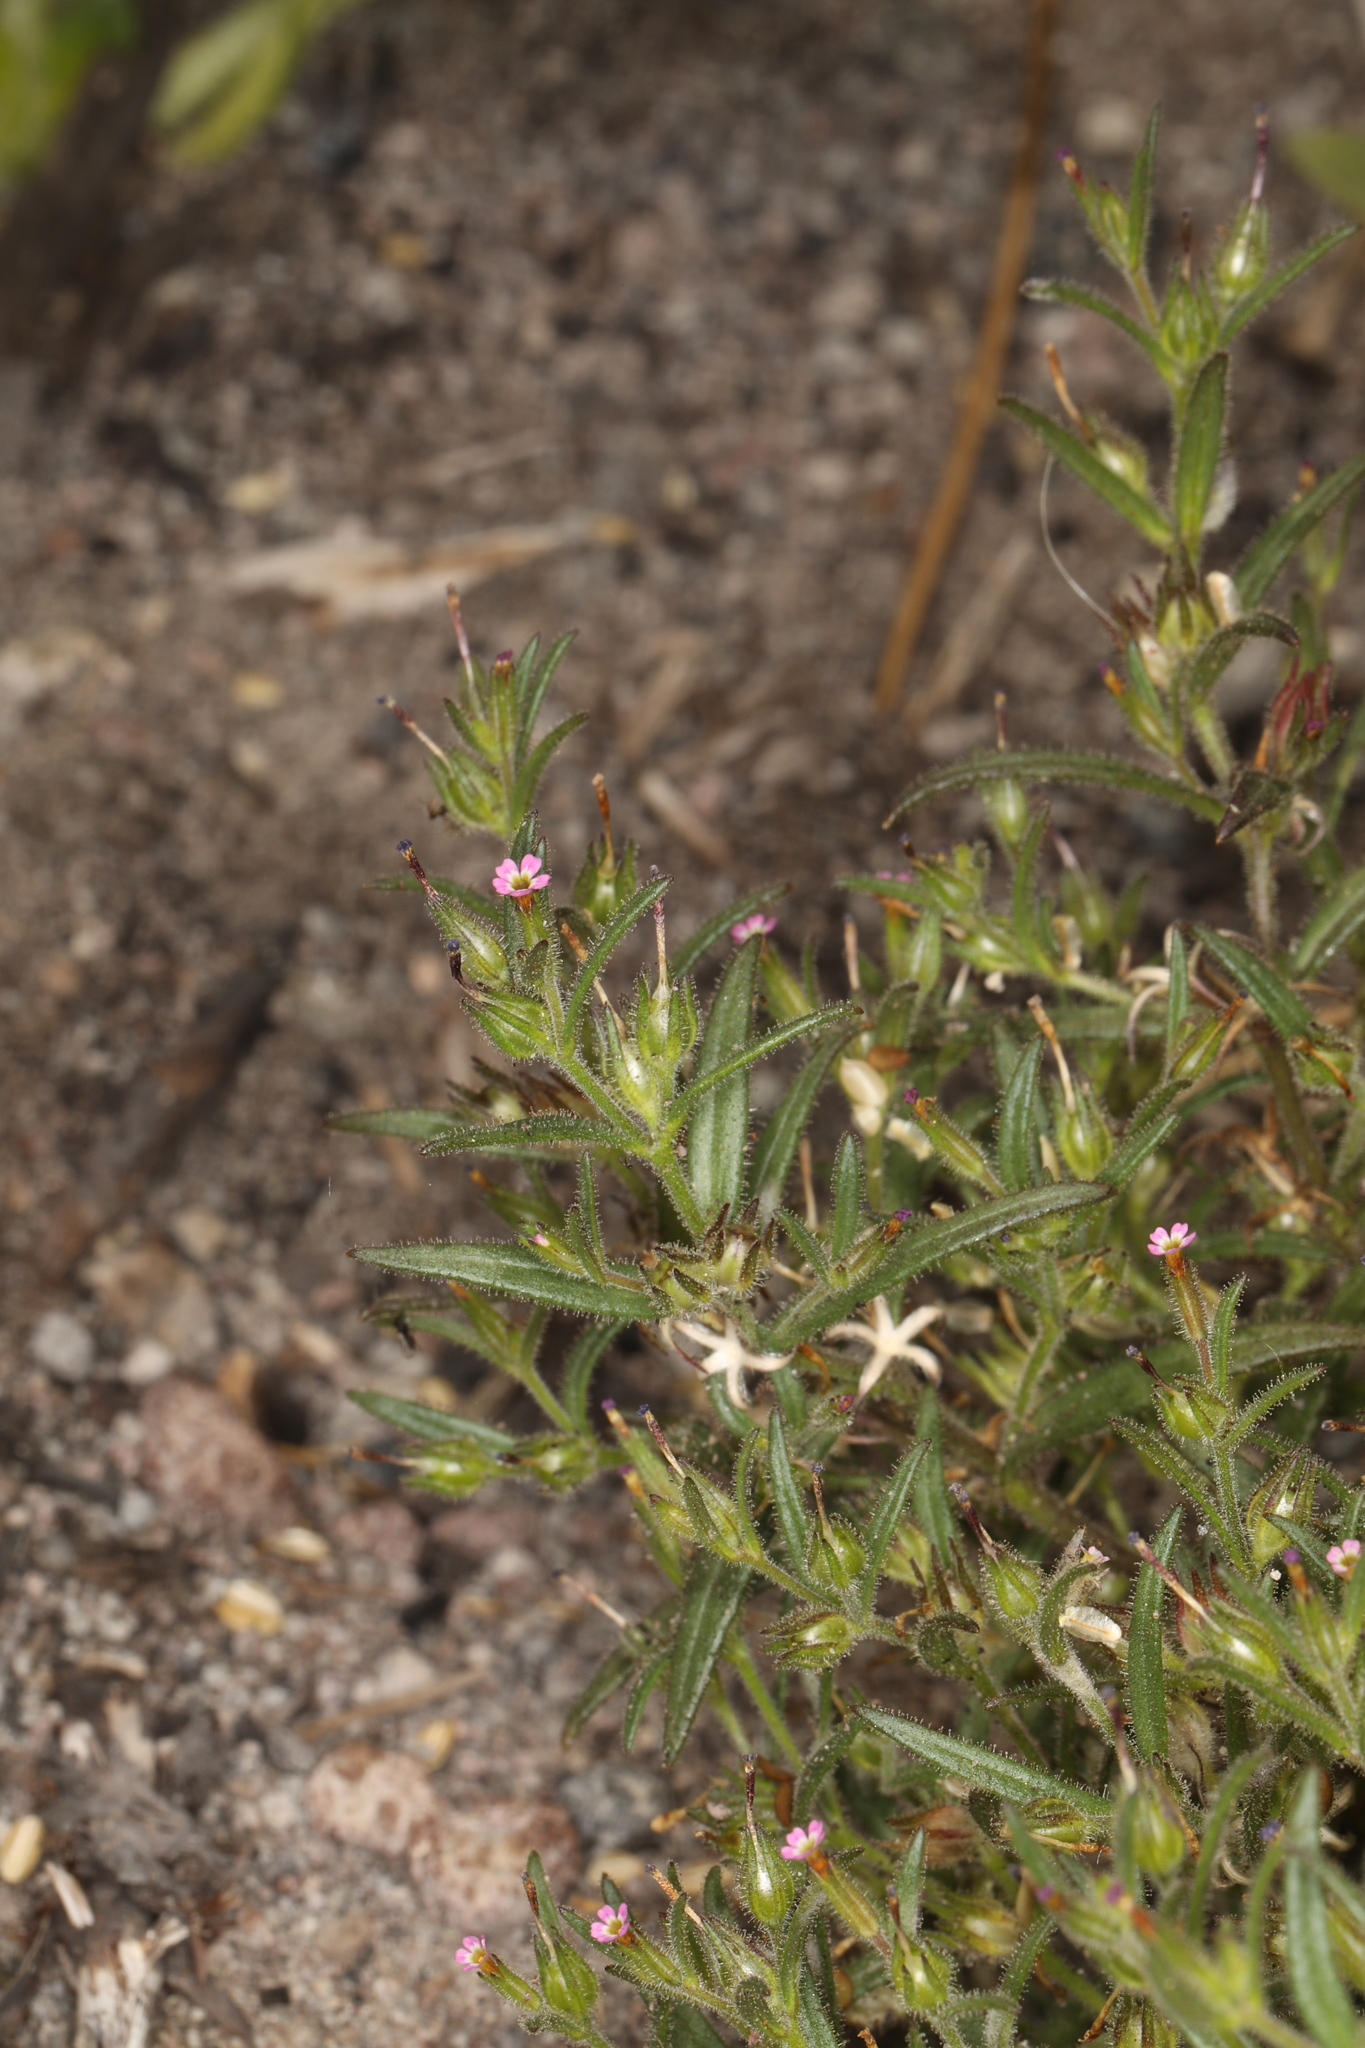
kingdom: Plantae
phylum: Tracheophyta
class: Magnoliopsida
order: Ericales
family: Polemoniaceae
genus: Phlox
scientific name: Phlox gracilis
